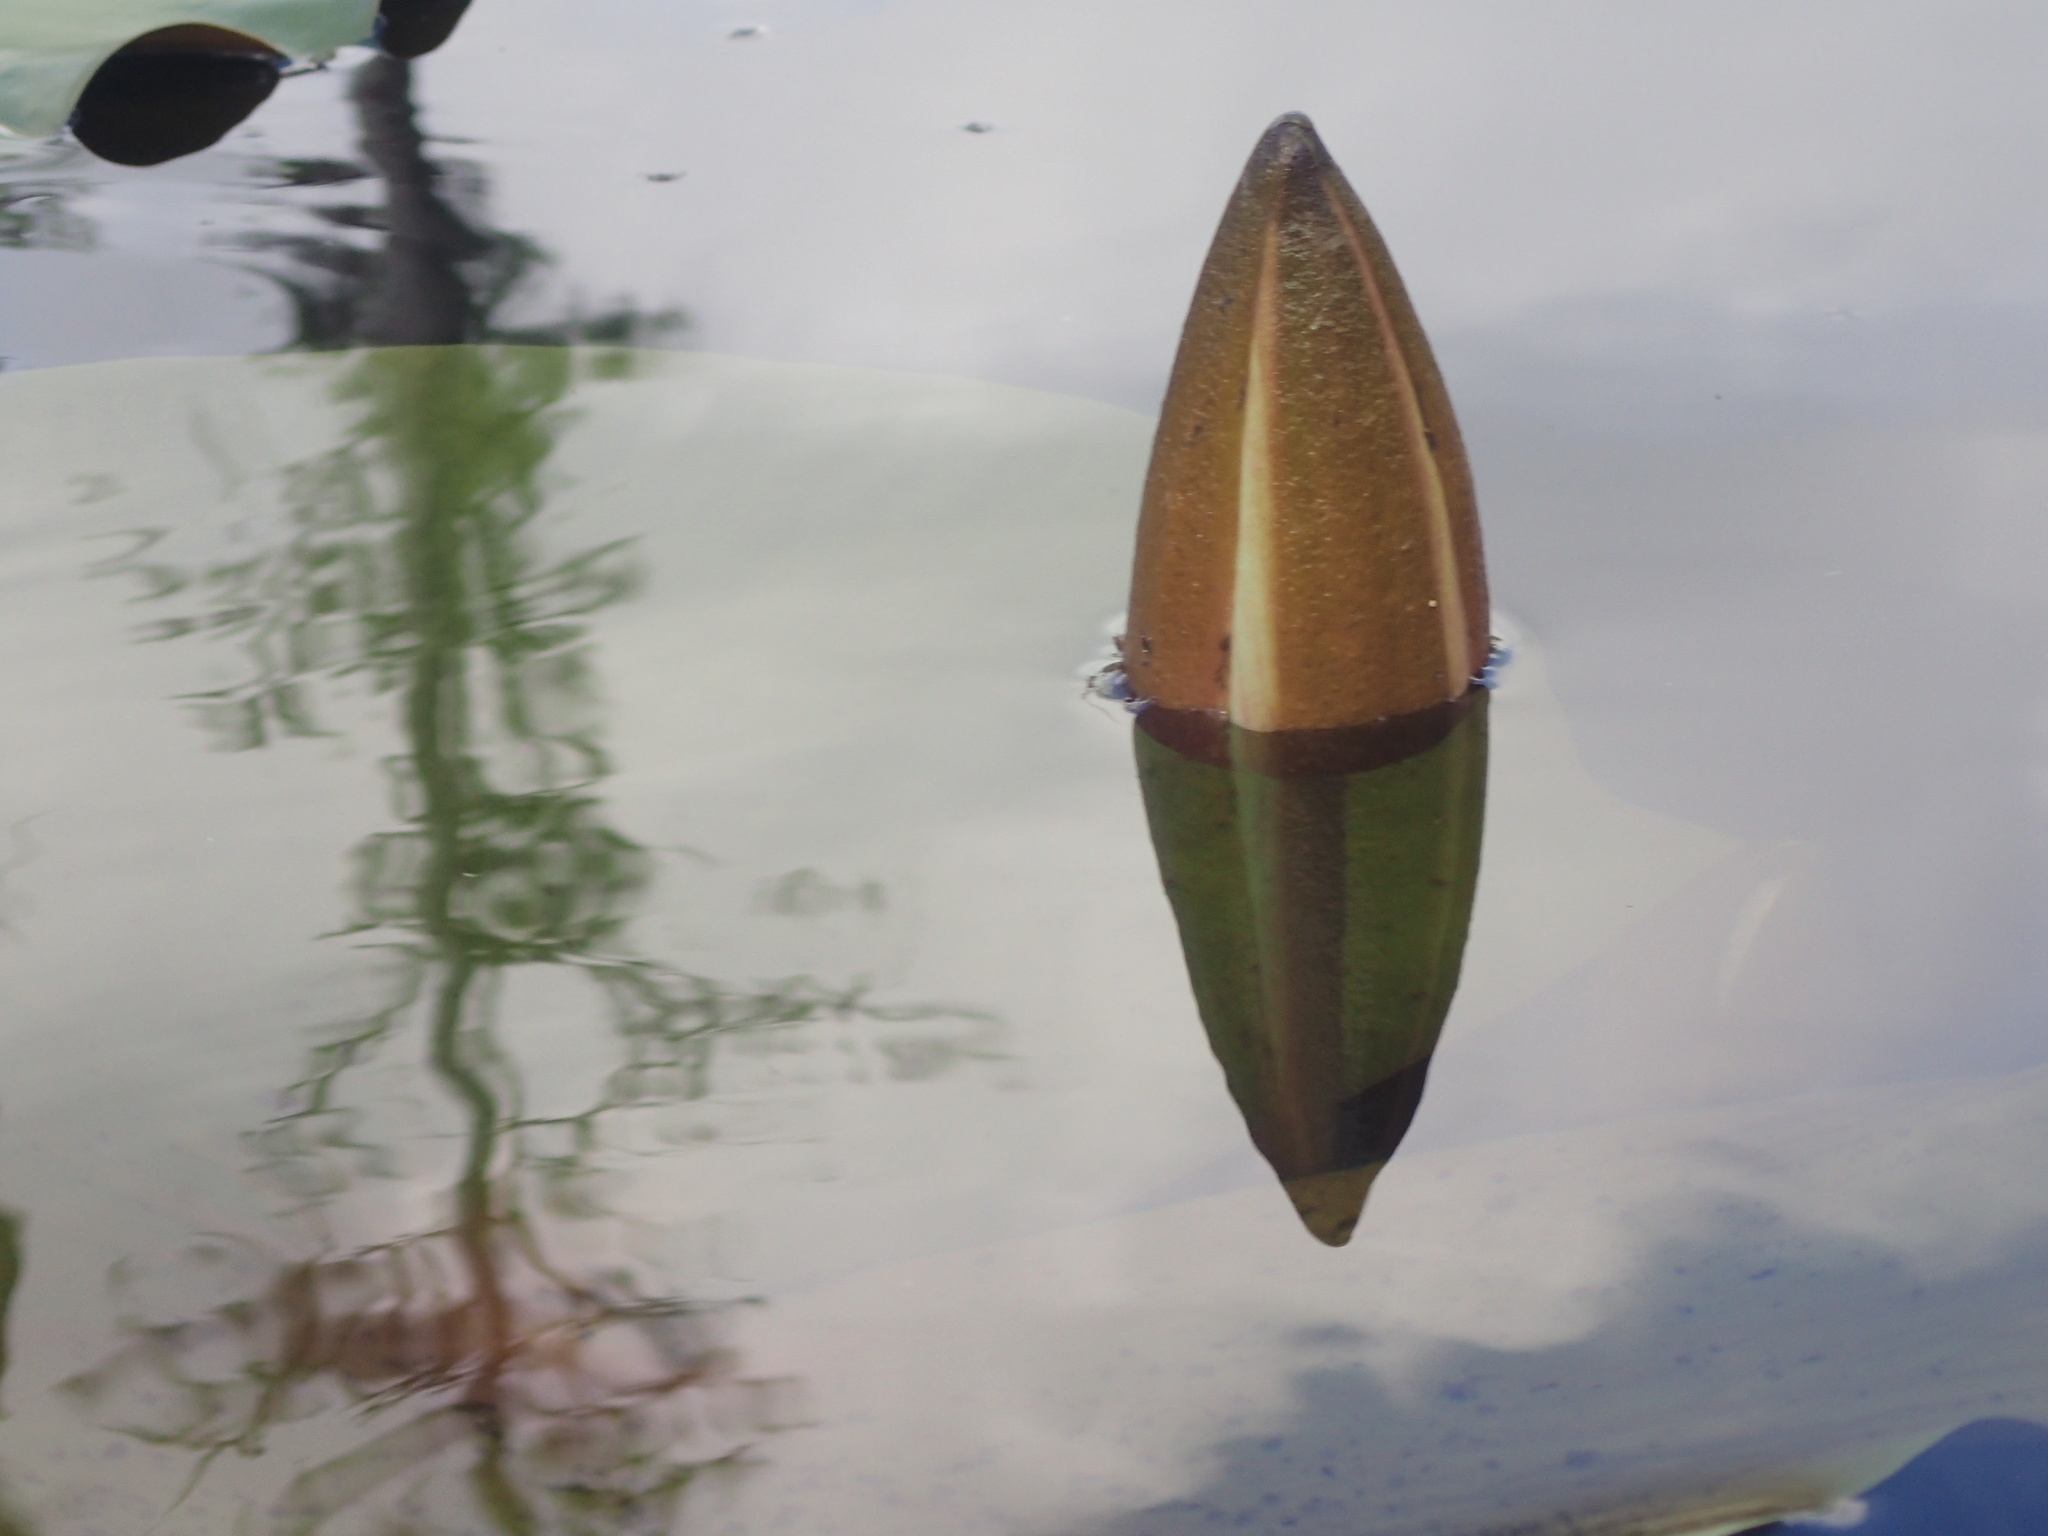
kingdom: Plantae
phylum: Tracheophyta
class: Magnoliopsida
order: Nymphaeales
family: Nymphaeaceae
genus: Nymphaea
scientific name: Nymphaea odorata
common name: Fragrant water-lily
